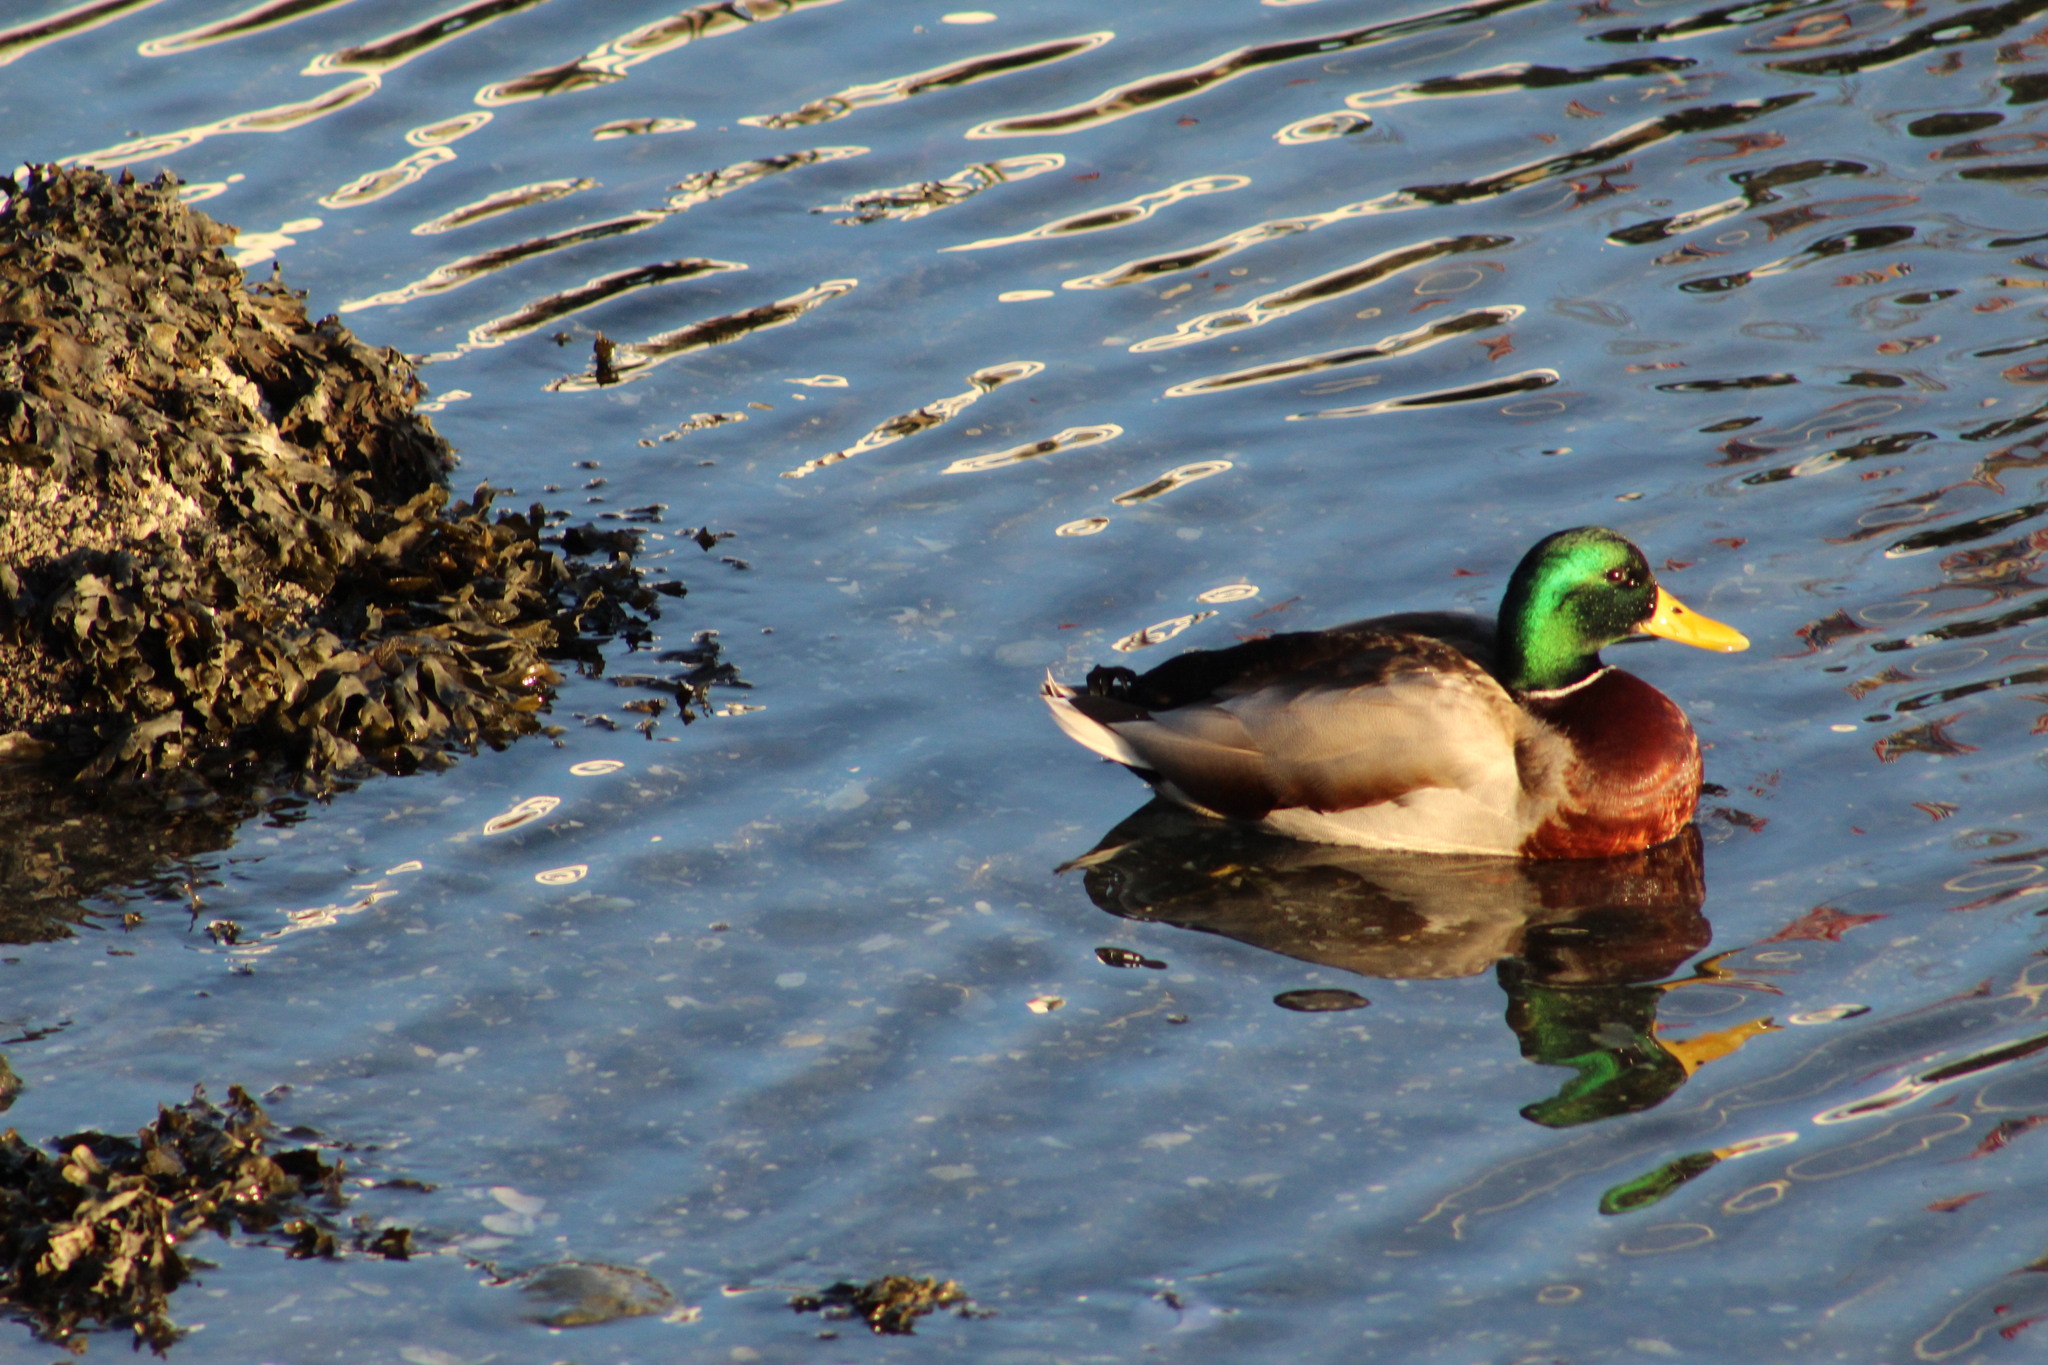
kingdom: Animalia
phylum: Chordata
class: Aves
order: Anseriformes
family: Anatidae
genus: Anas
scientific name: Anas platyrhynchos
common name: Mallard
